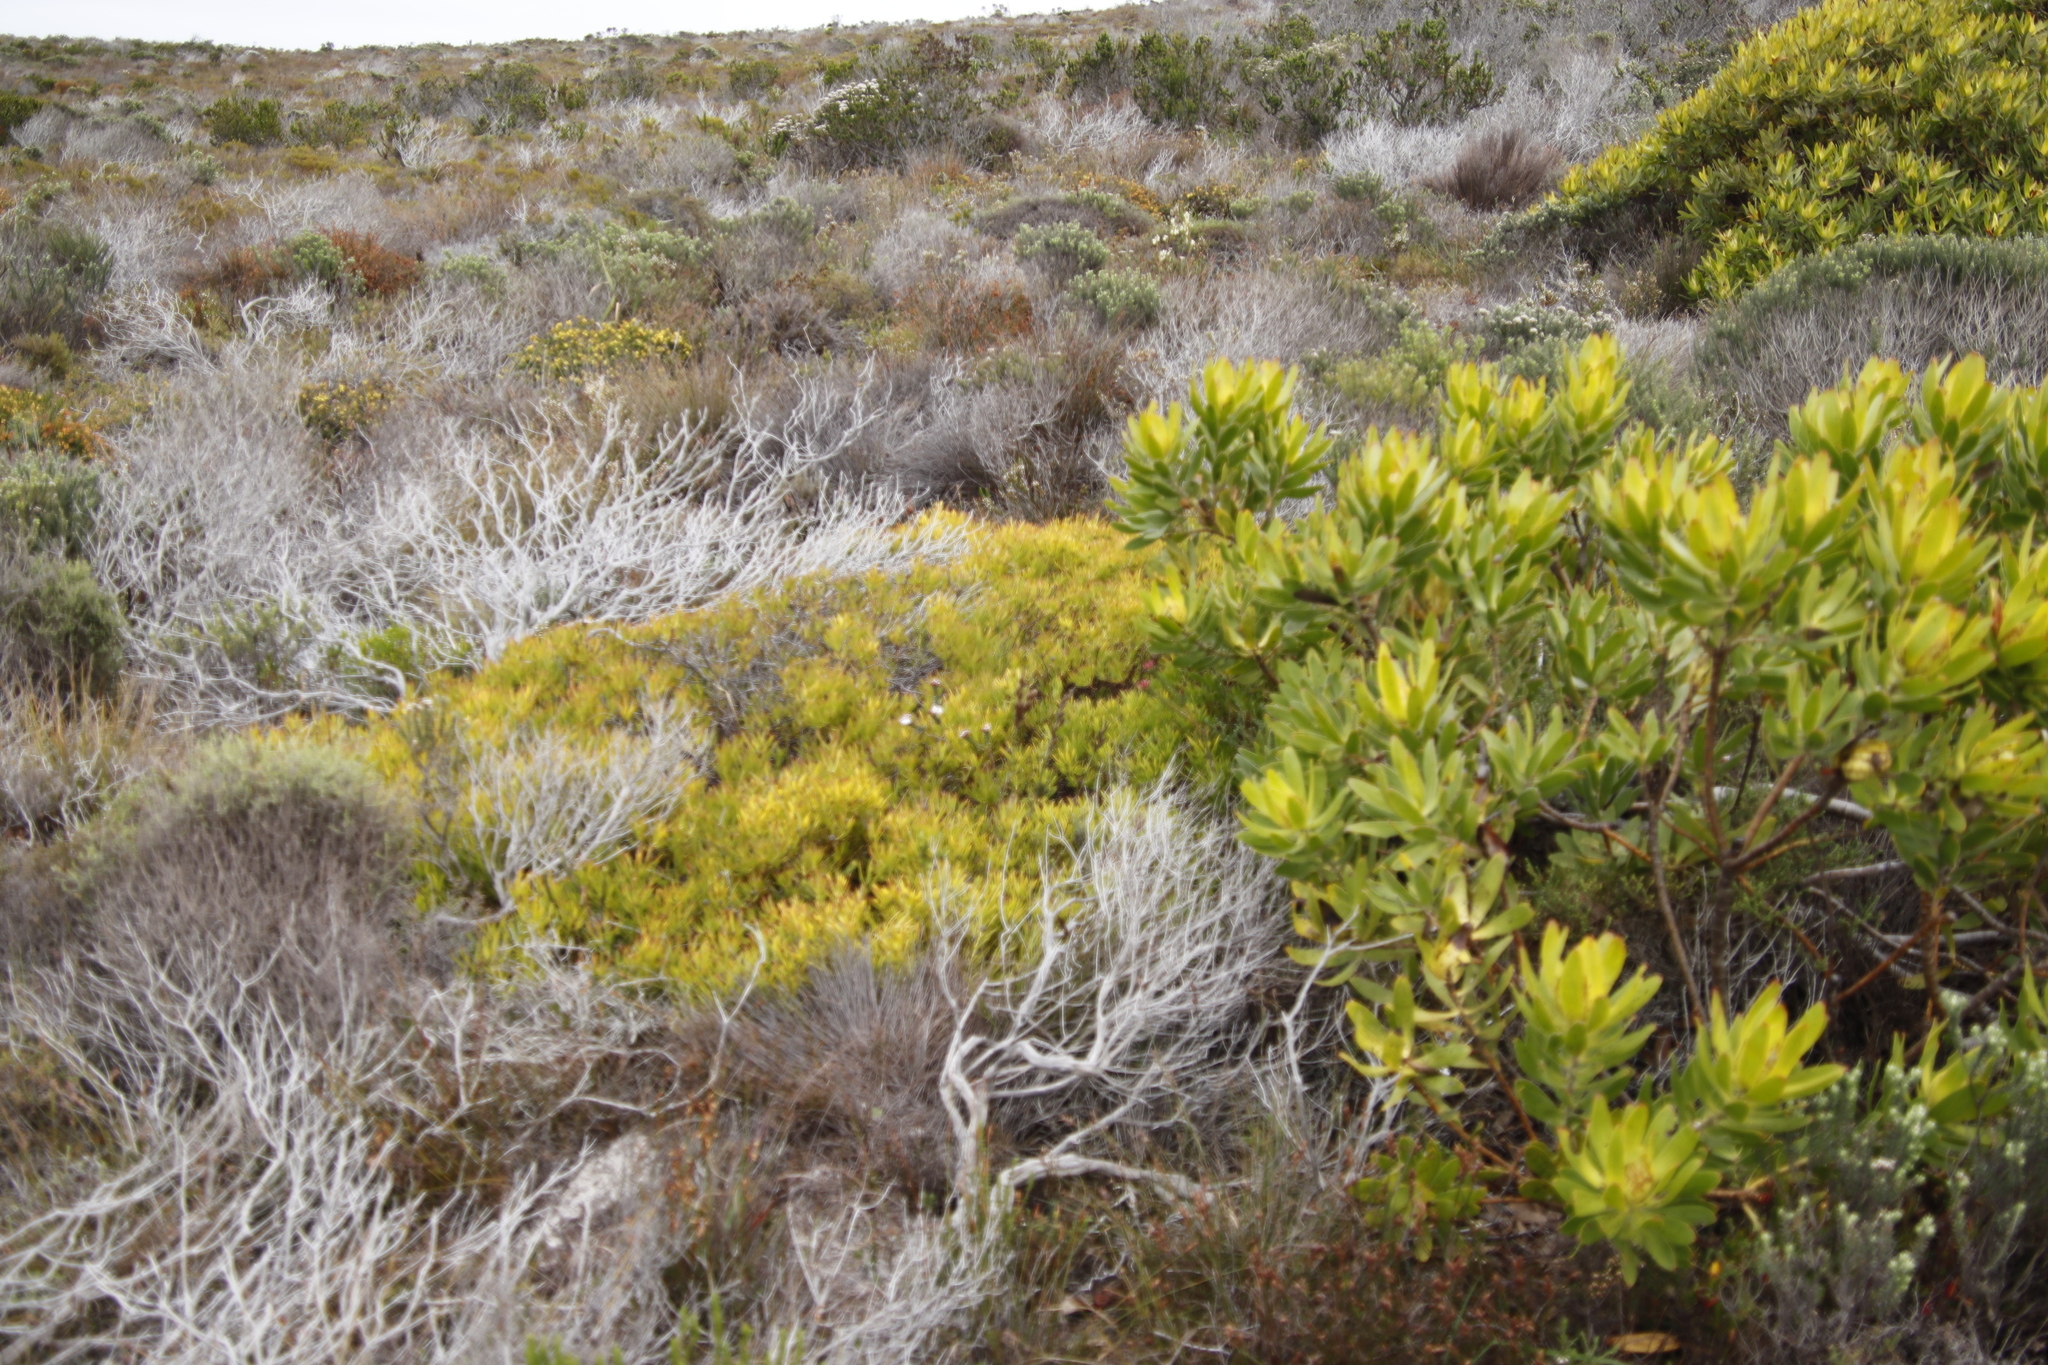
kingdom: Plantae
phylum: Tracheophyta
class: Magnoliopsida
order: Proteales
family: Proteaceae
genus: Leucadendron
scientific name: Leucadendron salignum
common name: Common sunshine conebush
